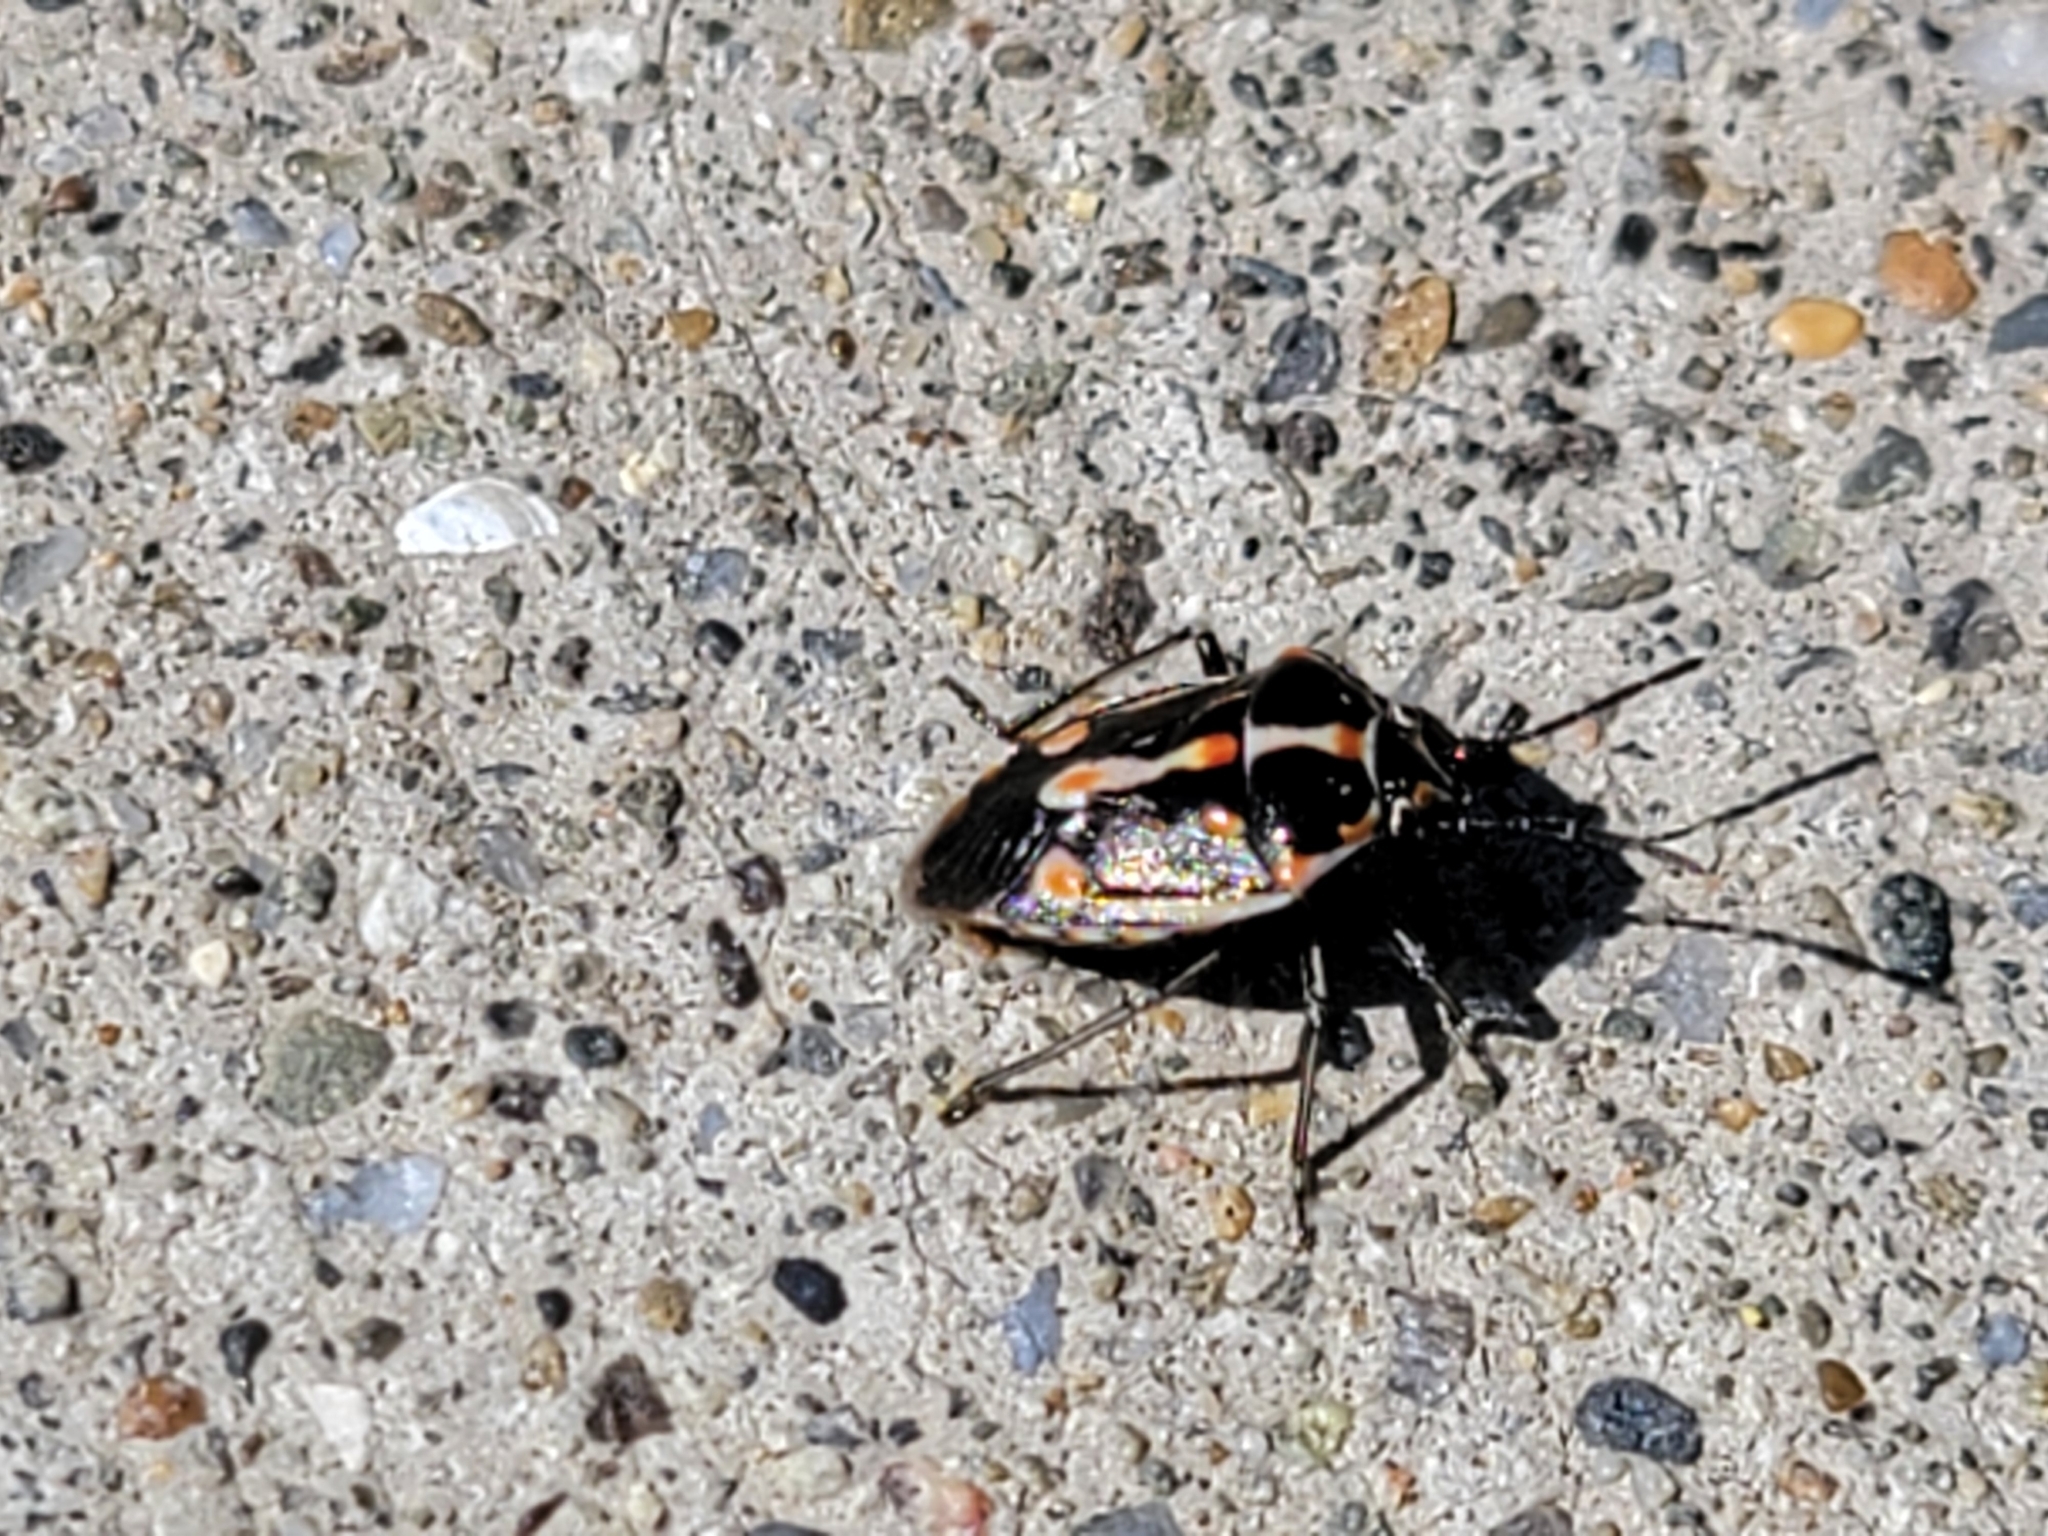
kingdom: Animalia
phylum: Arthropoda
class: Insecta
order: Hemiptera
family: Pentatomidae
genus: Bagrada
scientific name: Bagrada hilaris
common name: Bagrada bug
